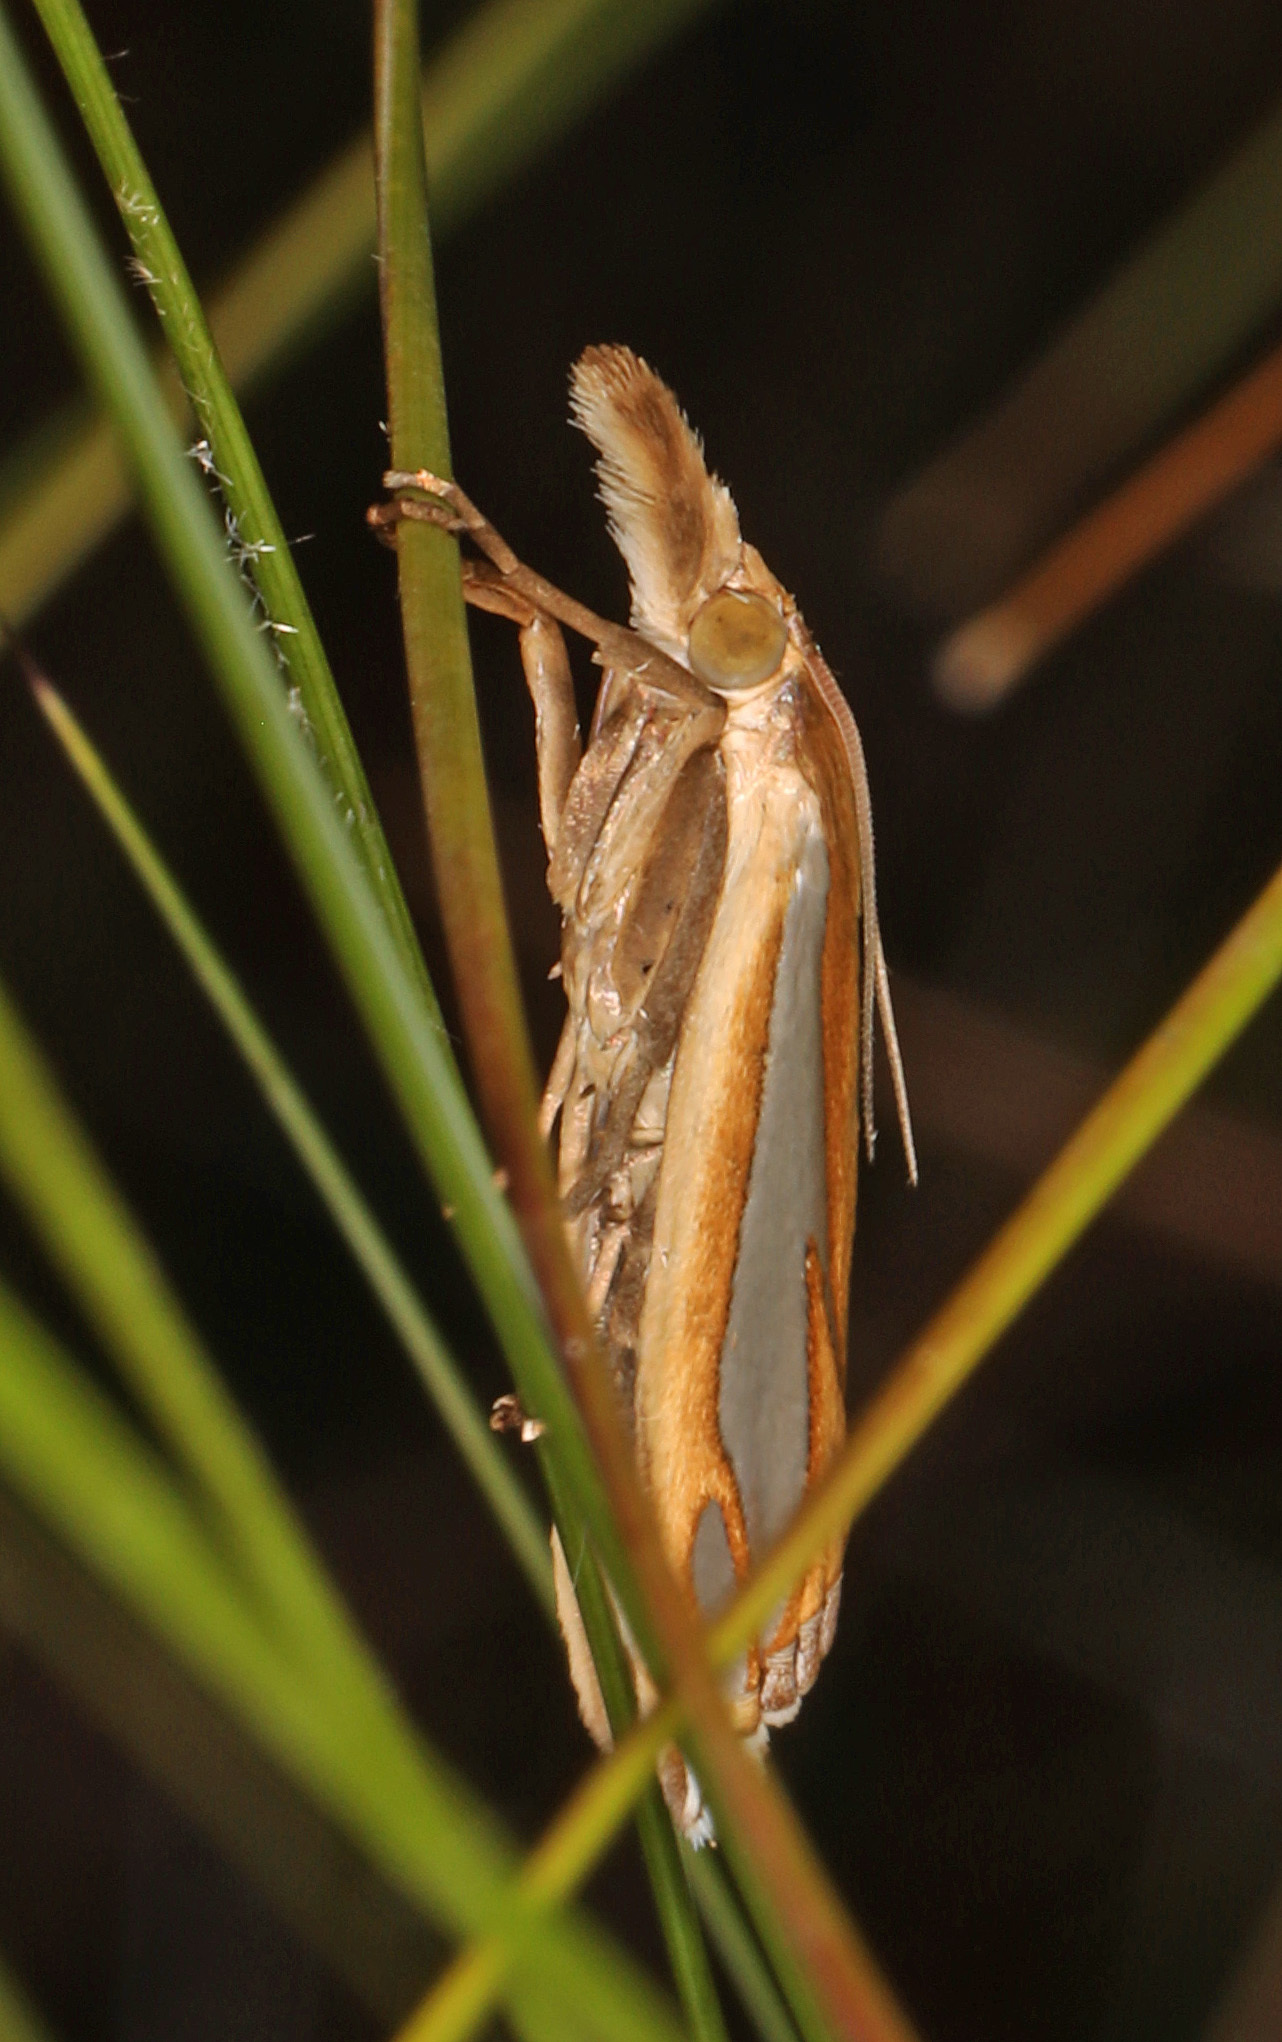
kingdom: Animalia
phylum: Arthropoda
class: Insecta
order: Lepidoptera
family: Crambidae
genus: Crambus
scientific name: Crambus satrapellus
